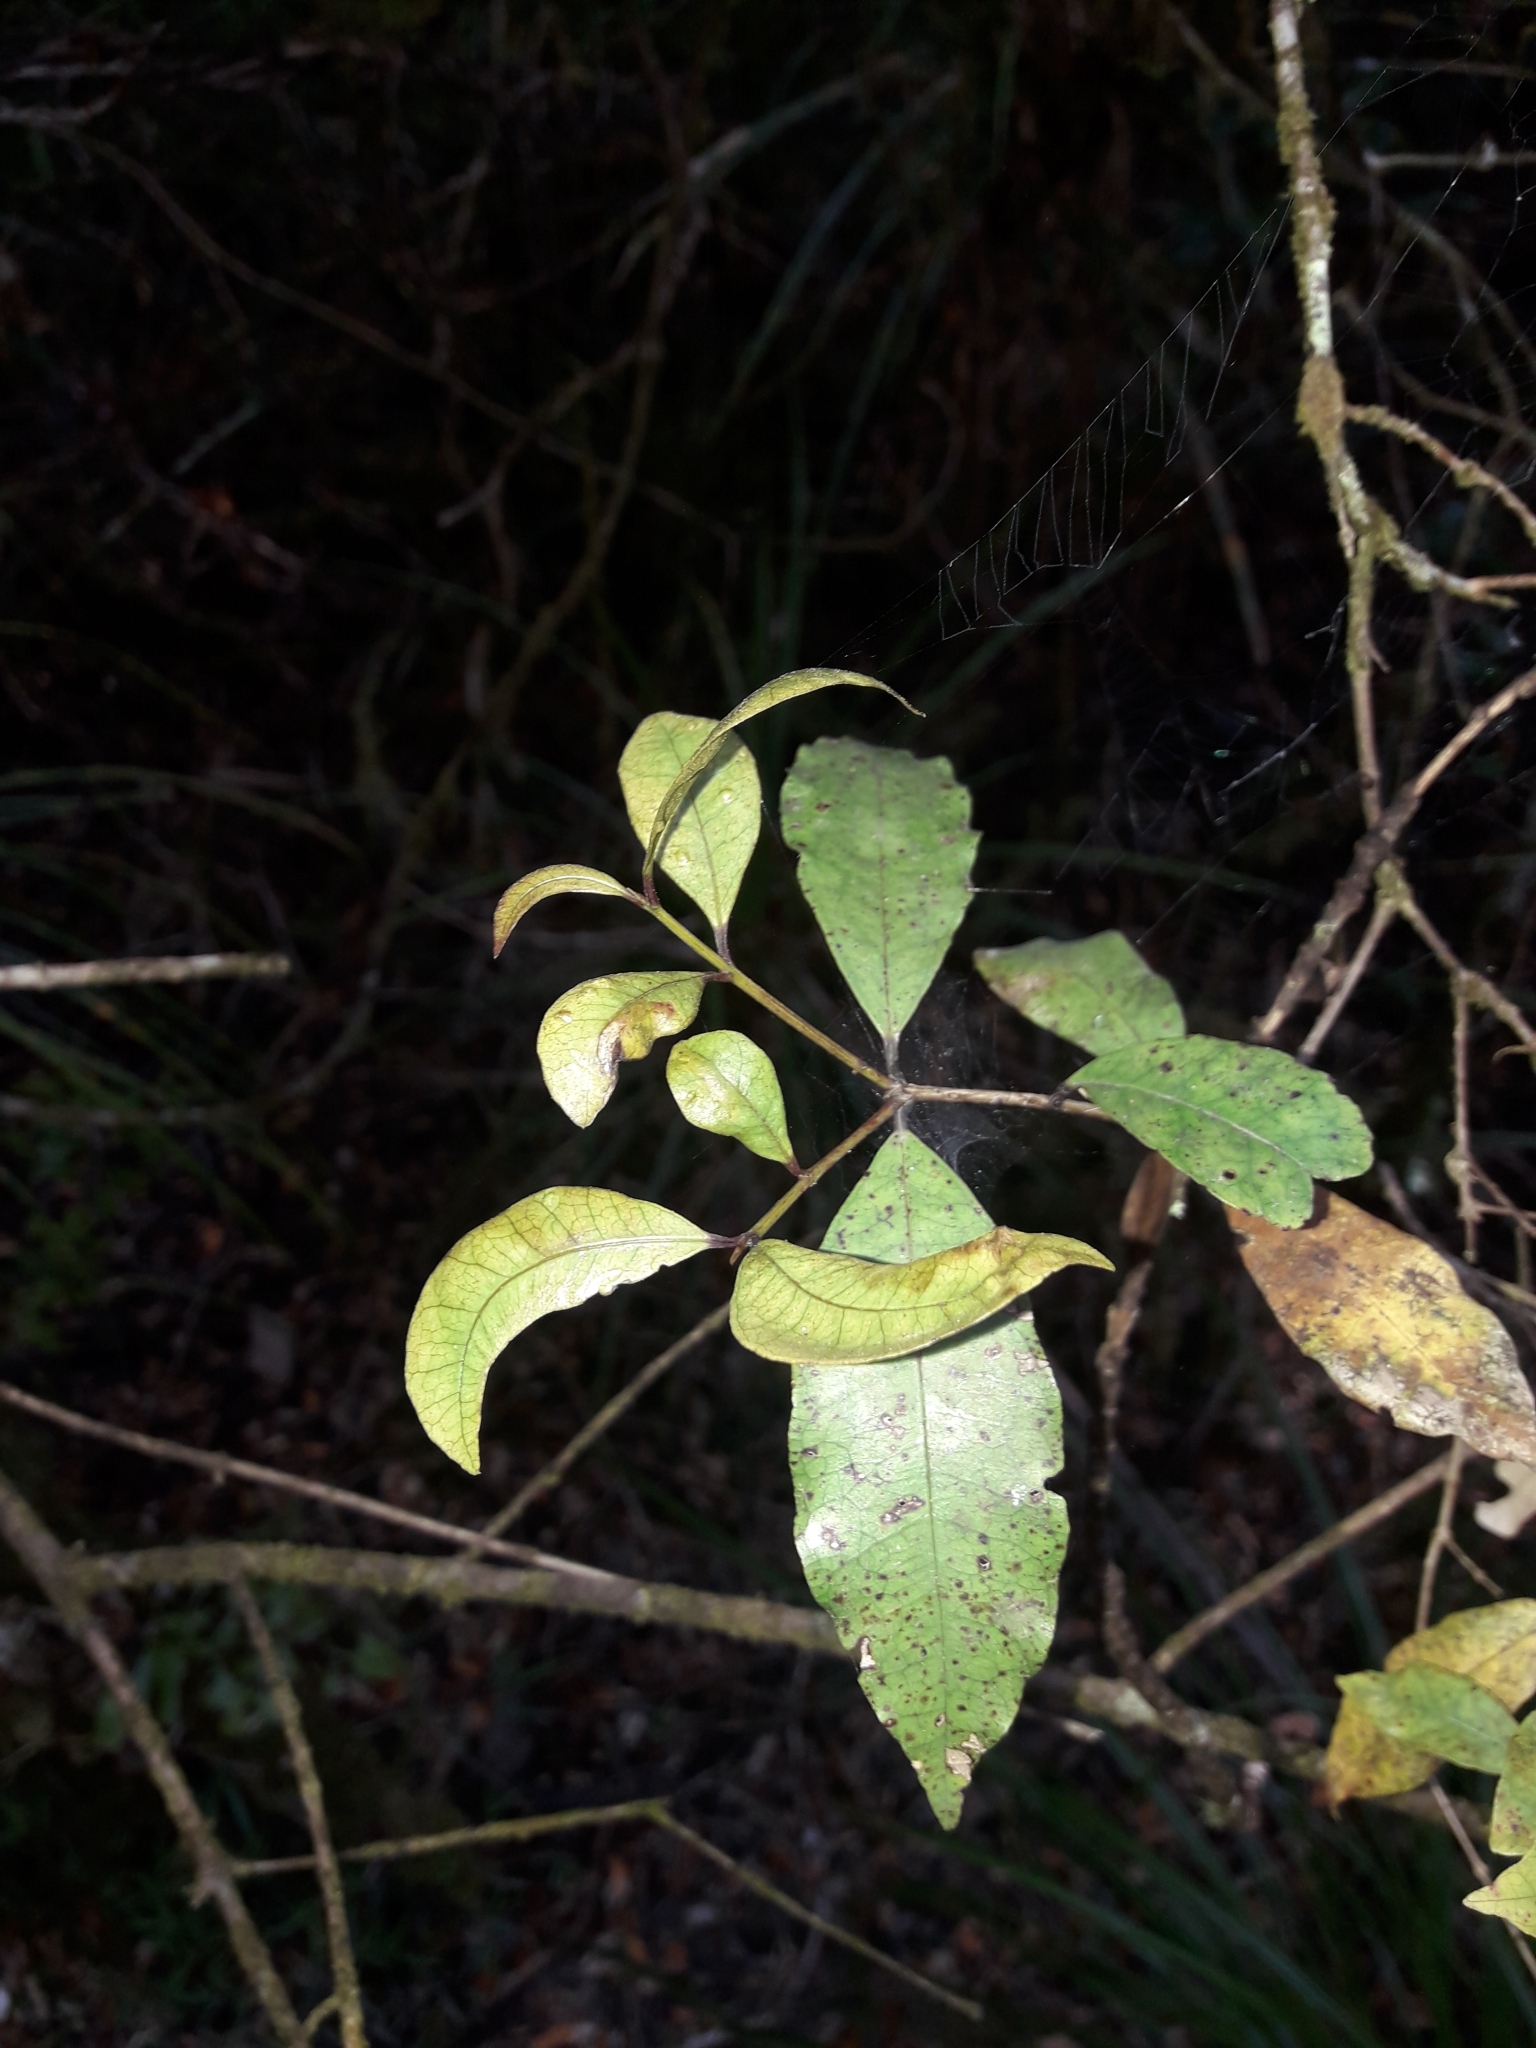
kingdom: Plantae
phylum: Tracheophyta
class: Magnoliopsida
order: Myrtales
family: Myrtaceae
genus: Syzygium
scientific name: Syzygium maire
